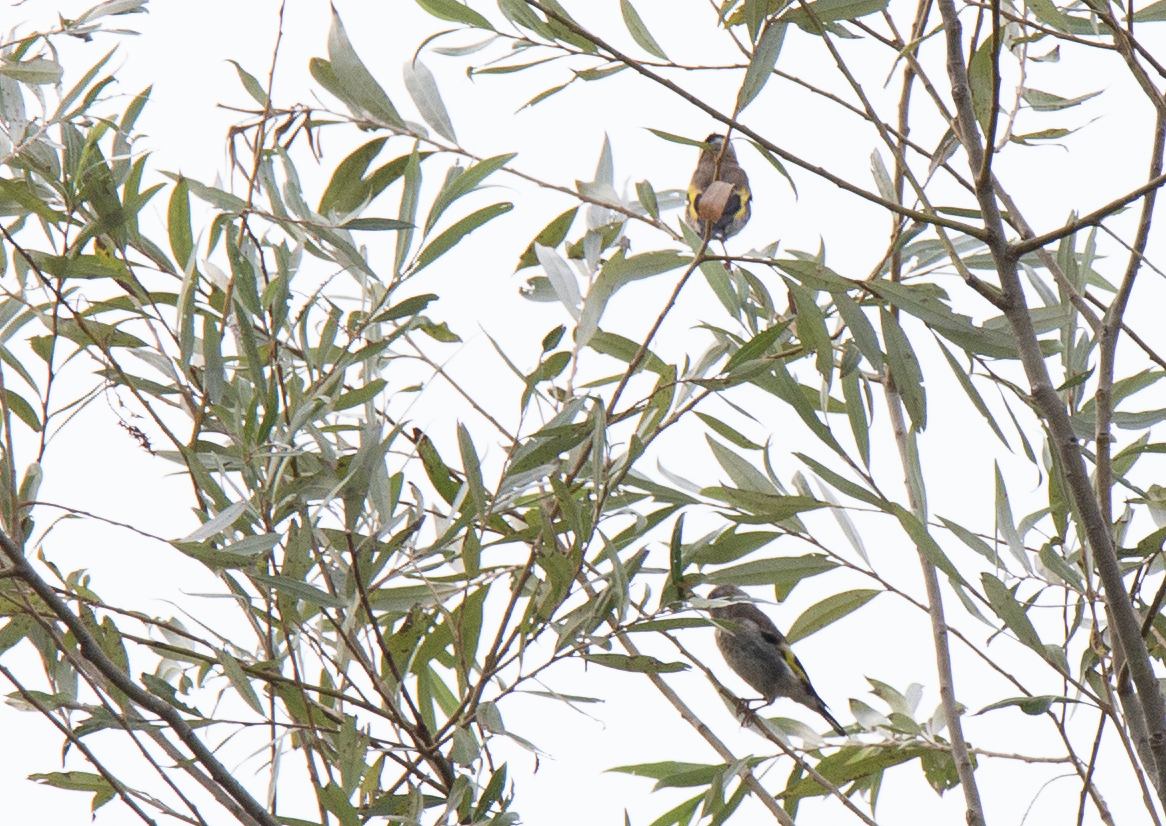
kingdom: Animalia
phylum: Chordata
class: Aves
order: Passeriformes
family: Fringillidae
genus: Carduelis
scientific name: Carduelis carduelis
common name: European goldfinch
